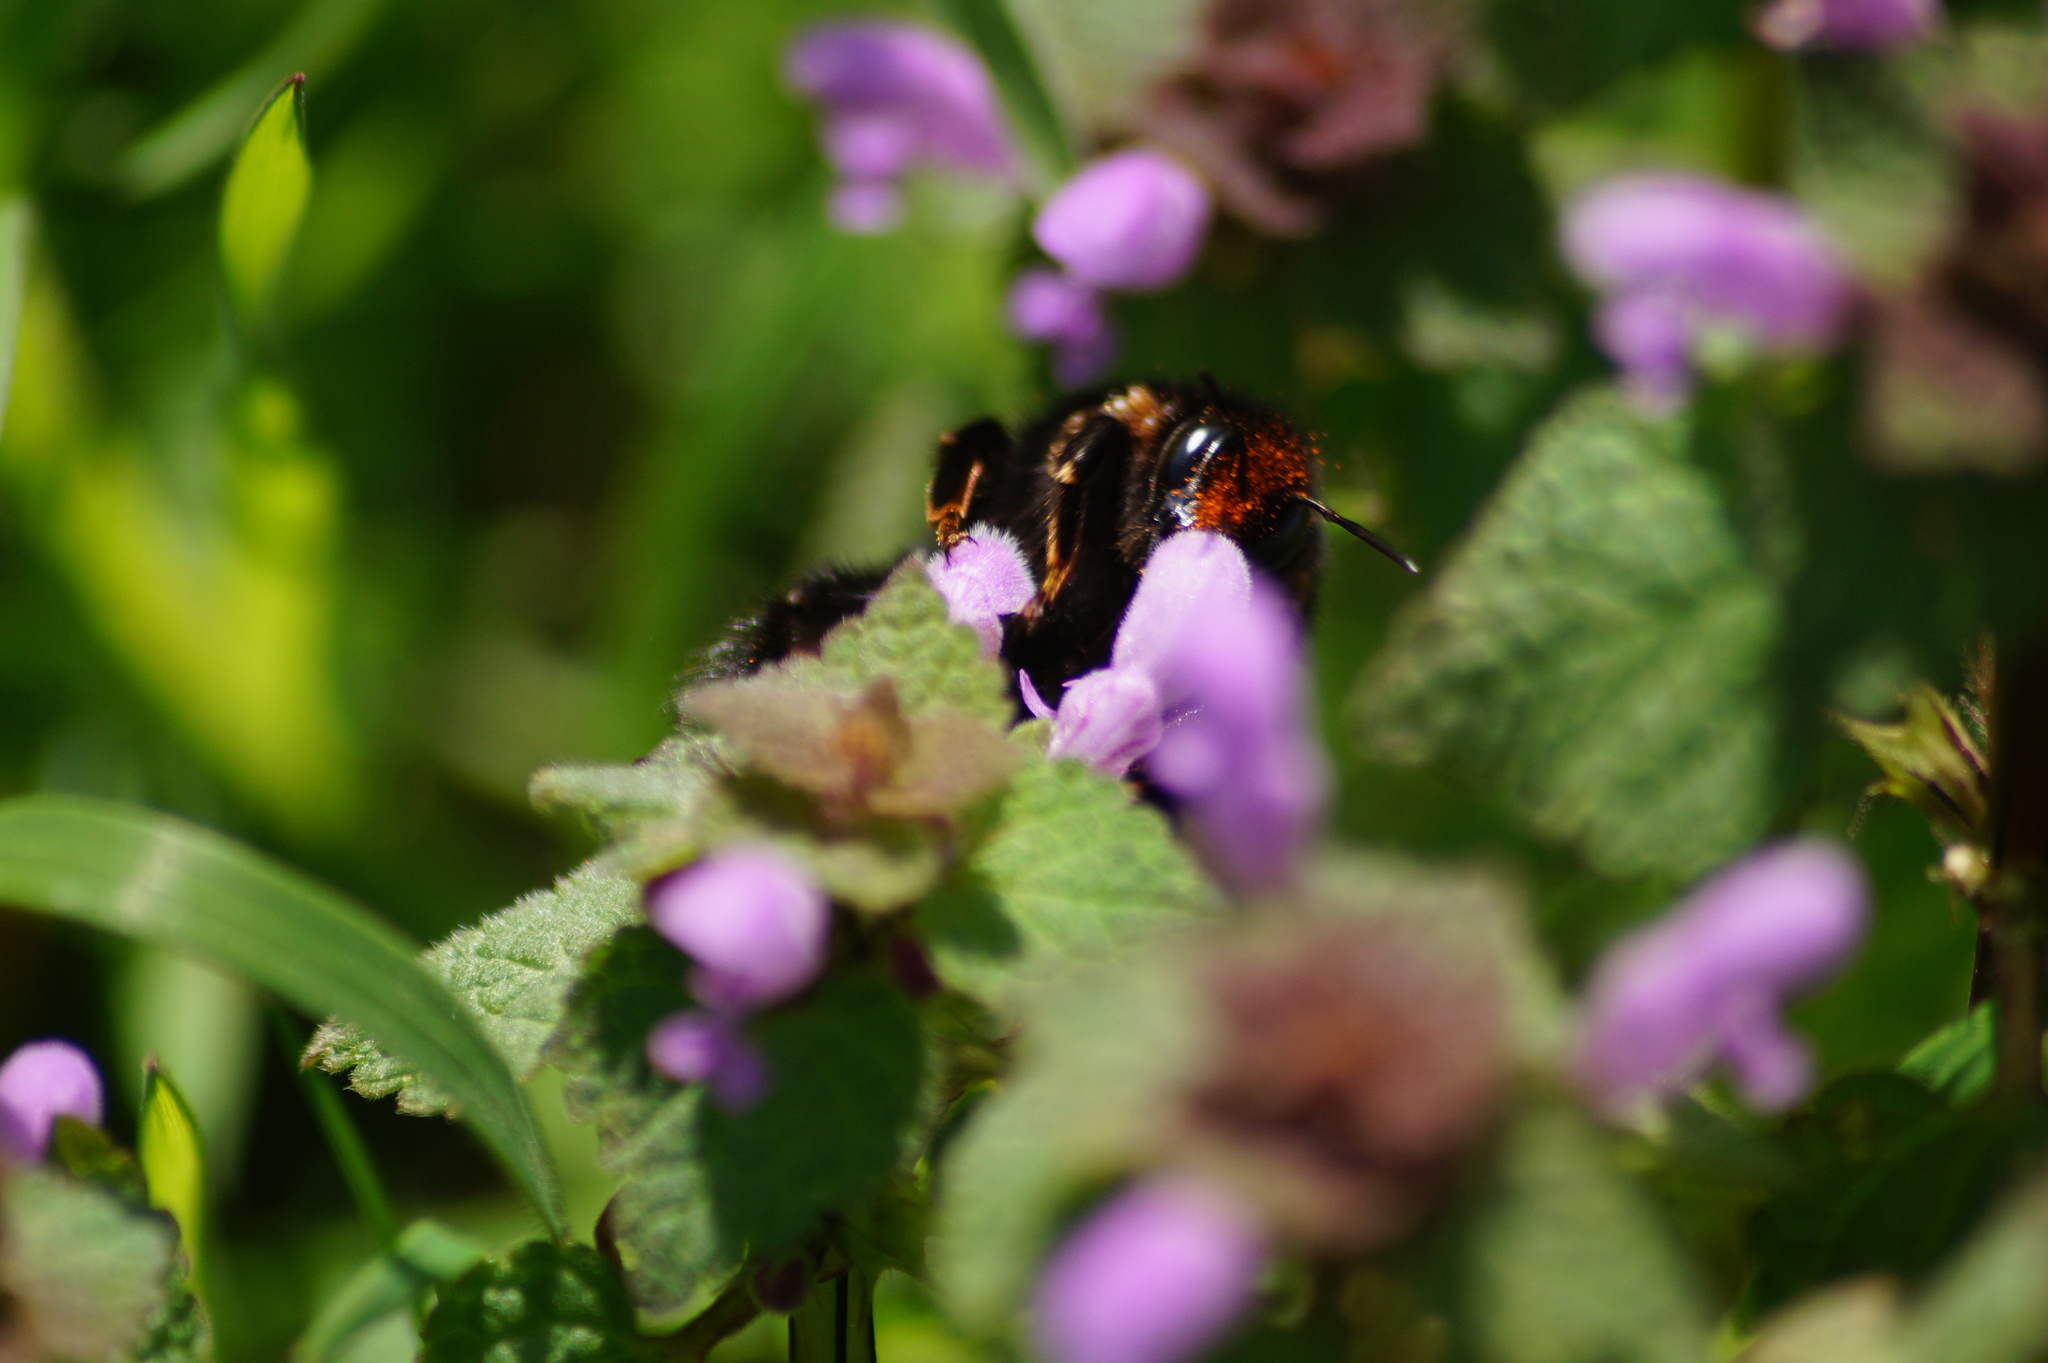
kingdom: Animalia
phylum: Arthropoda
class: Insecta
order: Hymenoptera
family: Apidae
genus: Bombus
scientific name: Bombus
